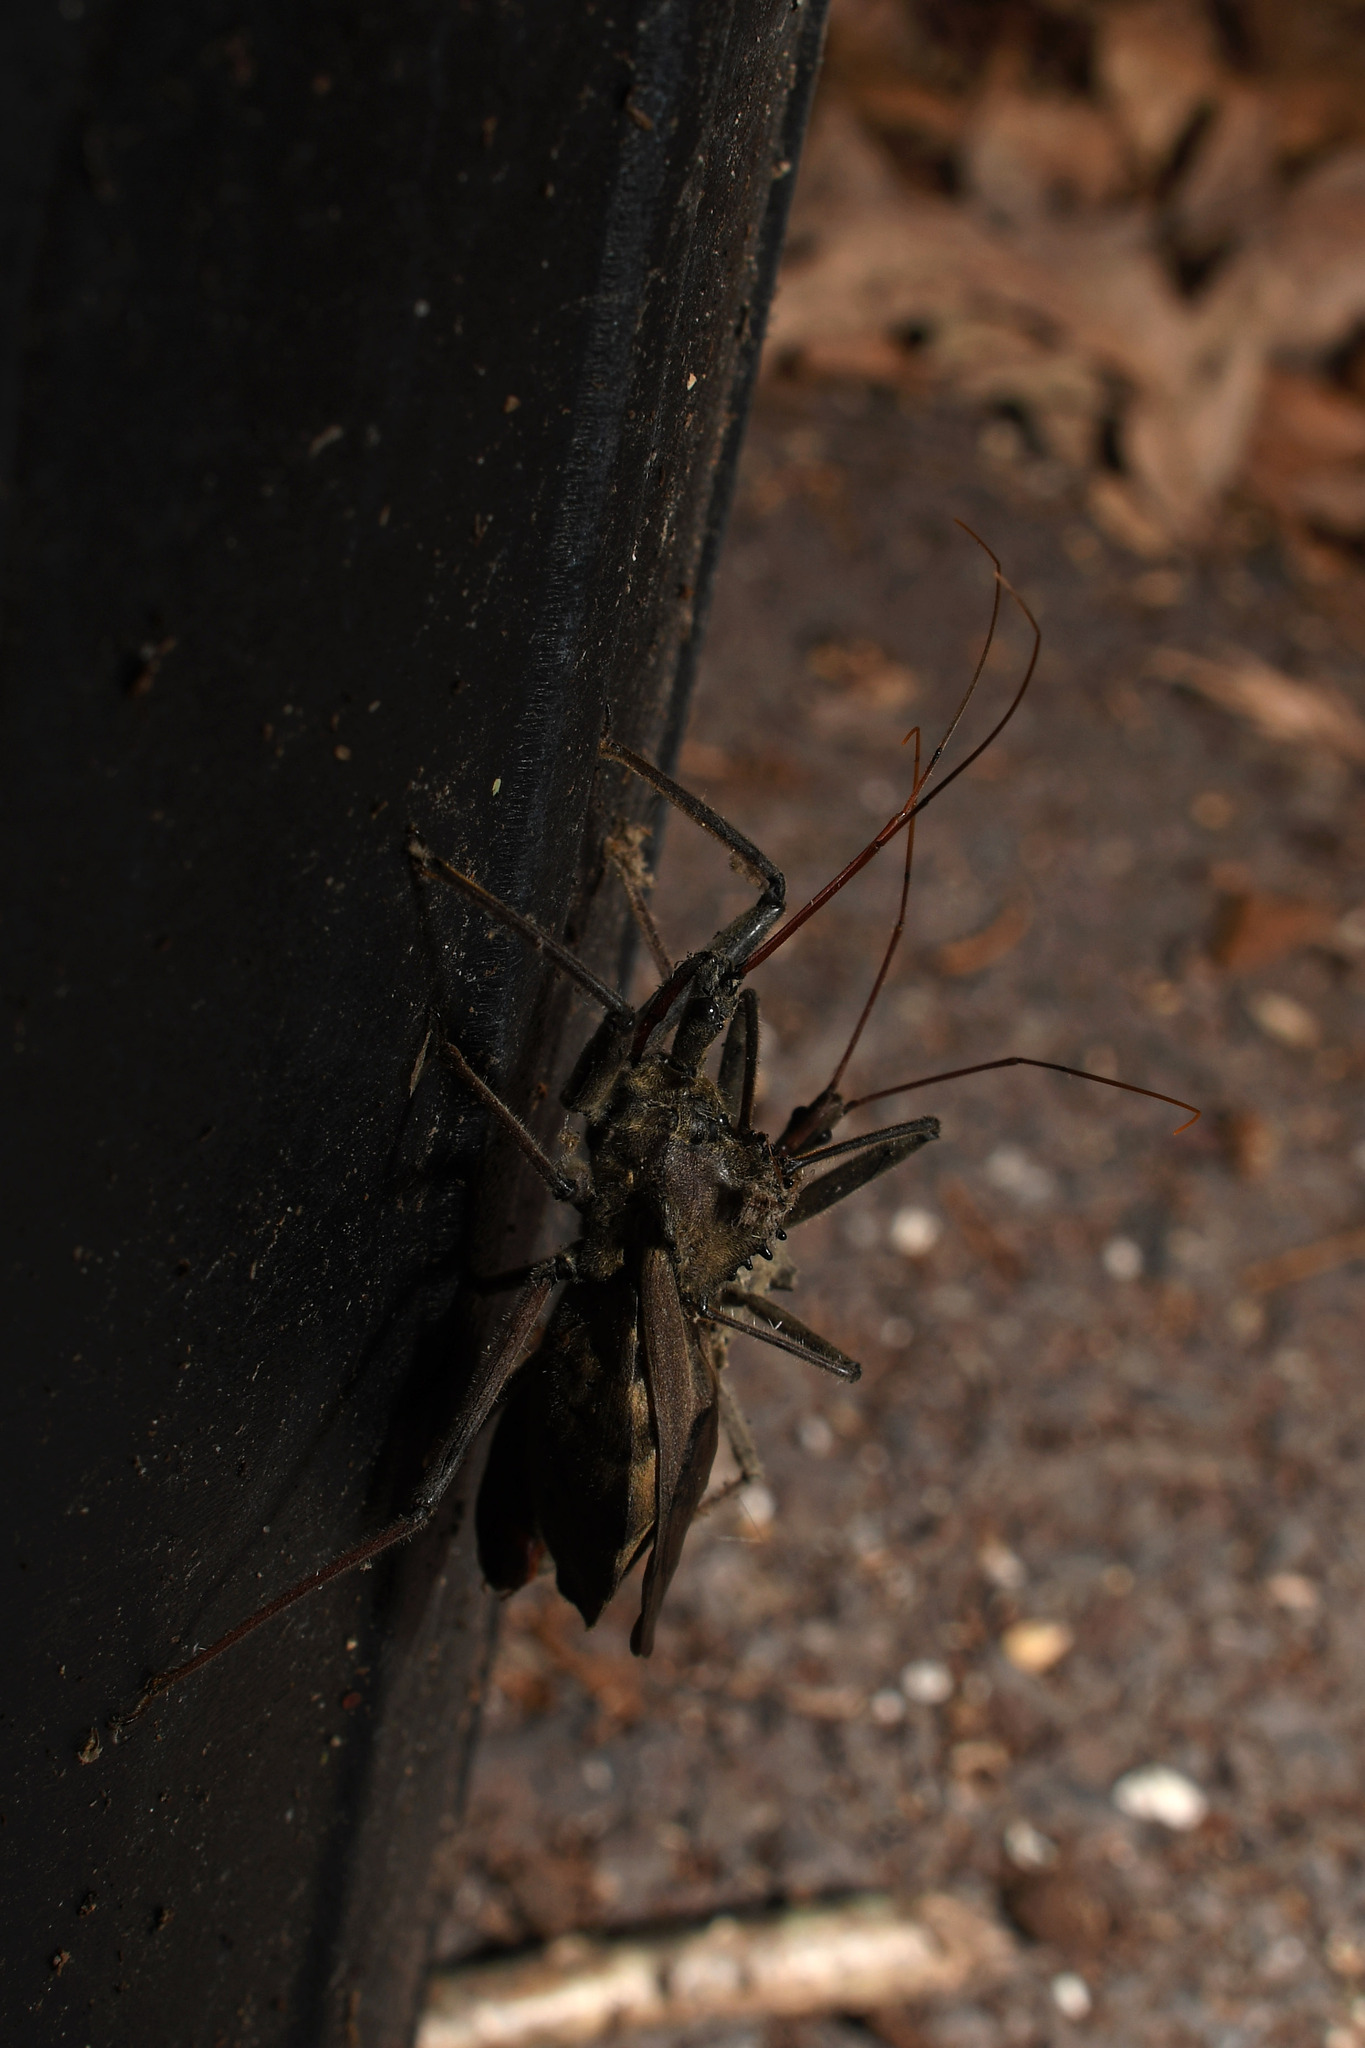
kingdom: Animalia
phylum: Arthropoda
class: Insecta
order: Hemiptera
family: Reduviidae
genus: Arilus
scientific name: Arilus cristatus
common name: North american wheel bug
